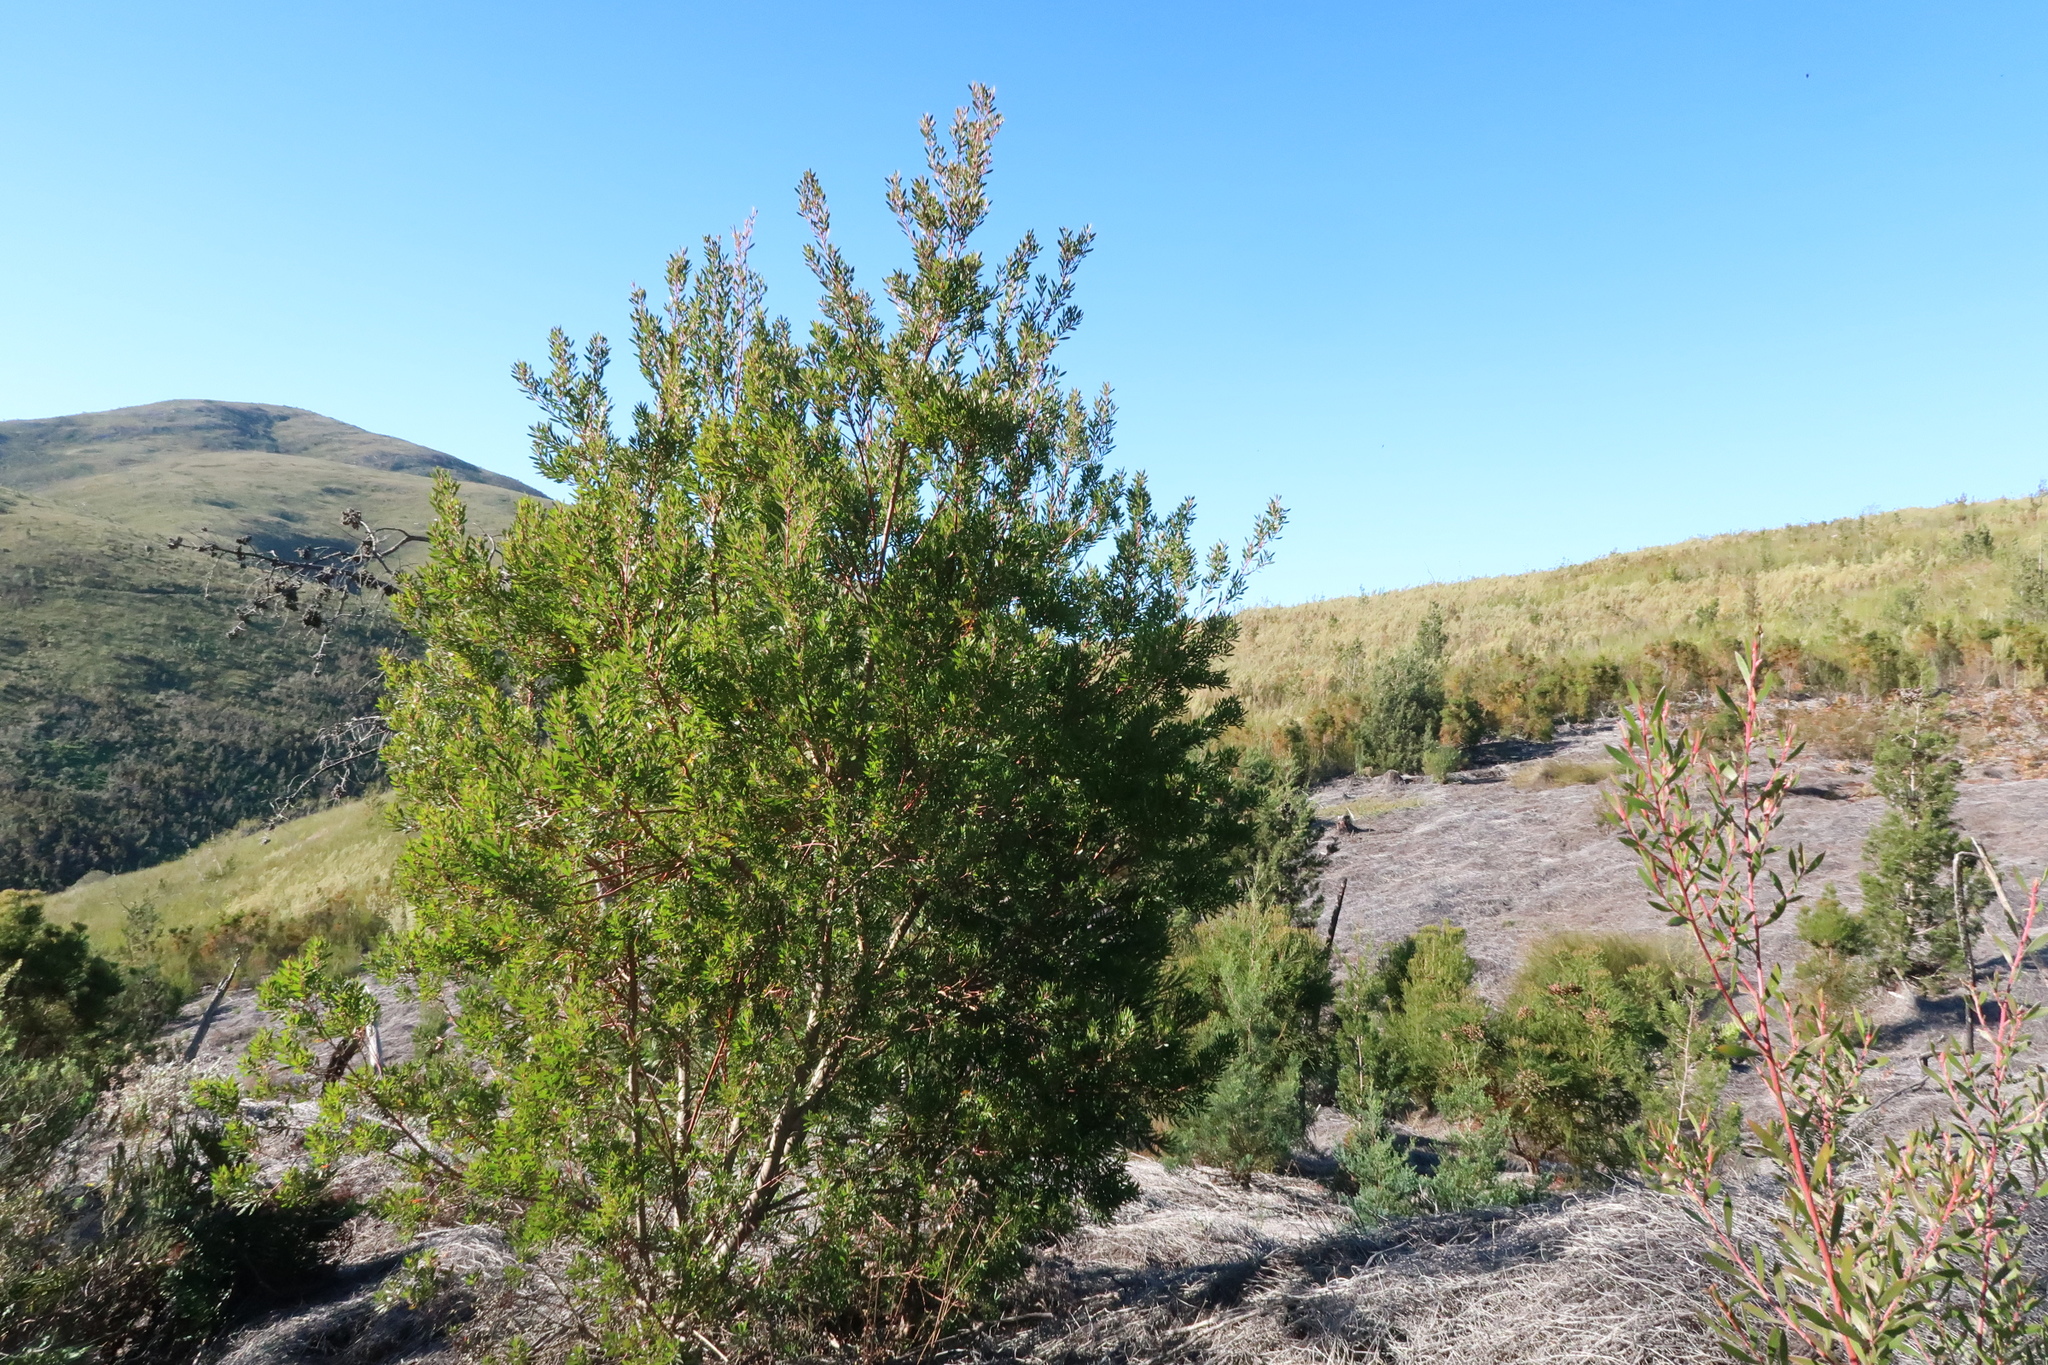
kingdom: Plantae
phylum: Tracheophyta
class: Magnoliopsida
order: Proteales
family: Proteaceae
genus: Leucadendron
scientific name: Leucadendron conicum
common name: Garden route conebush
